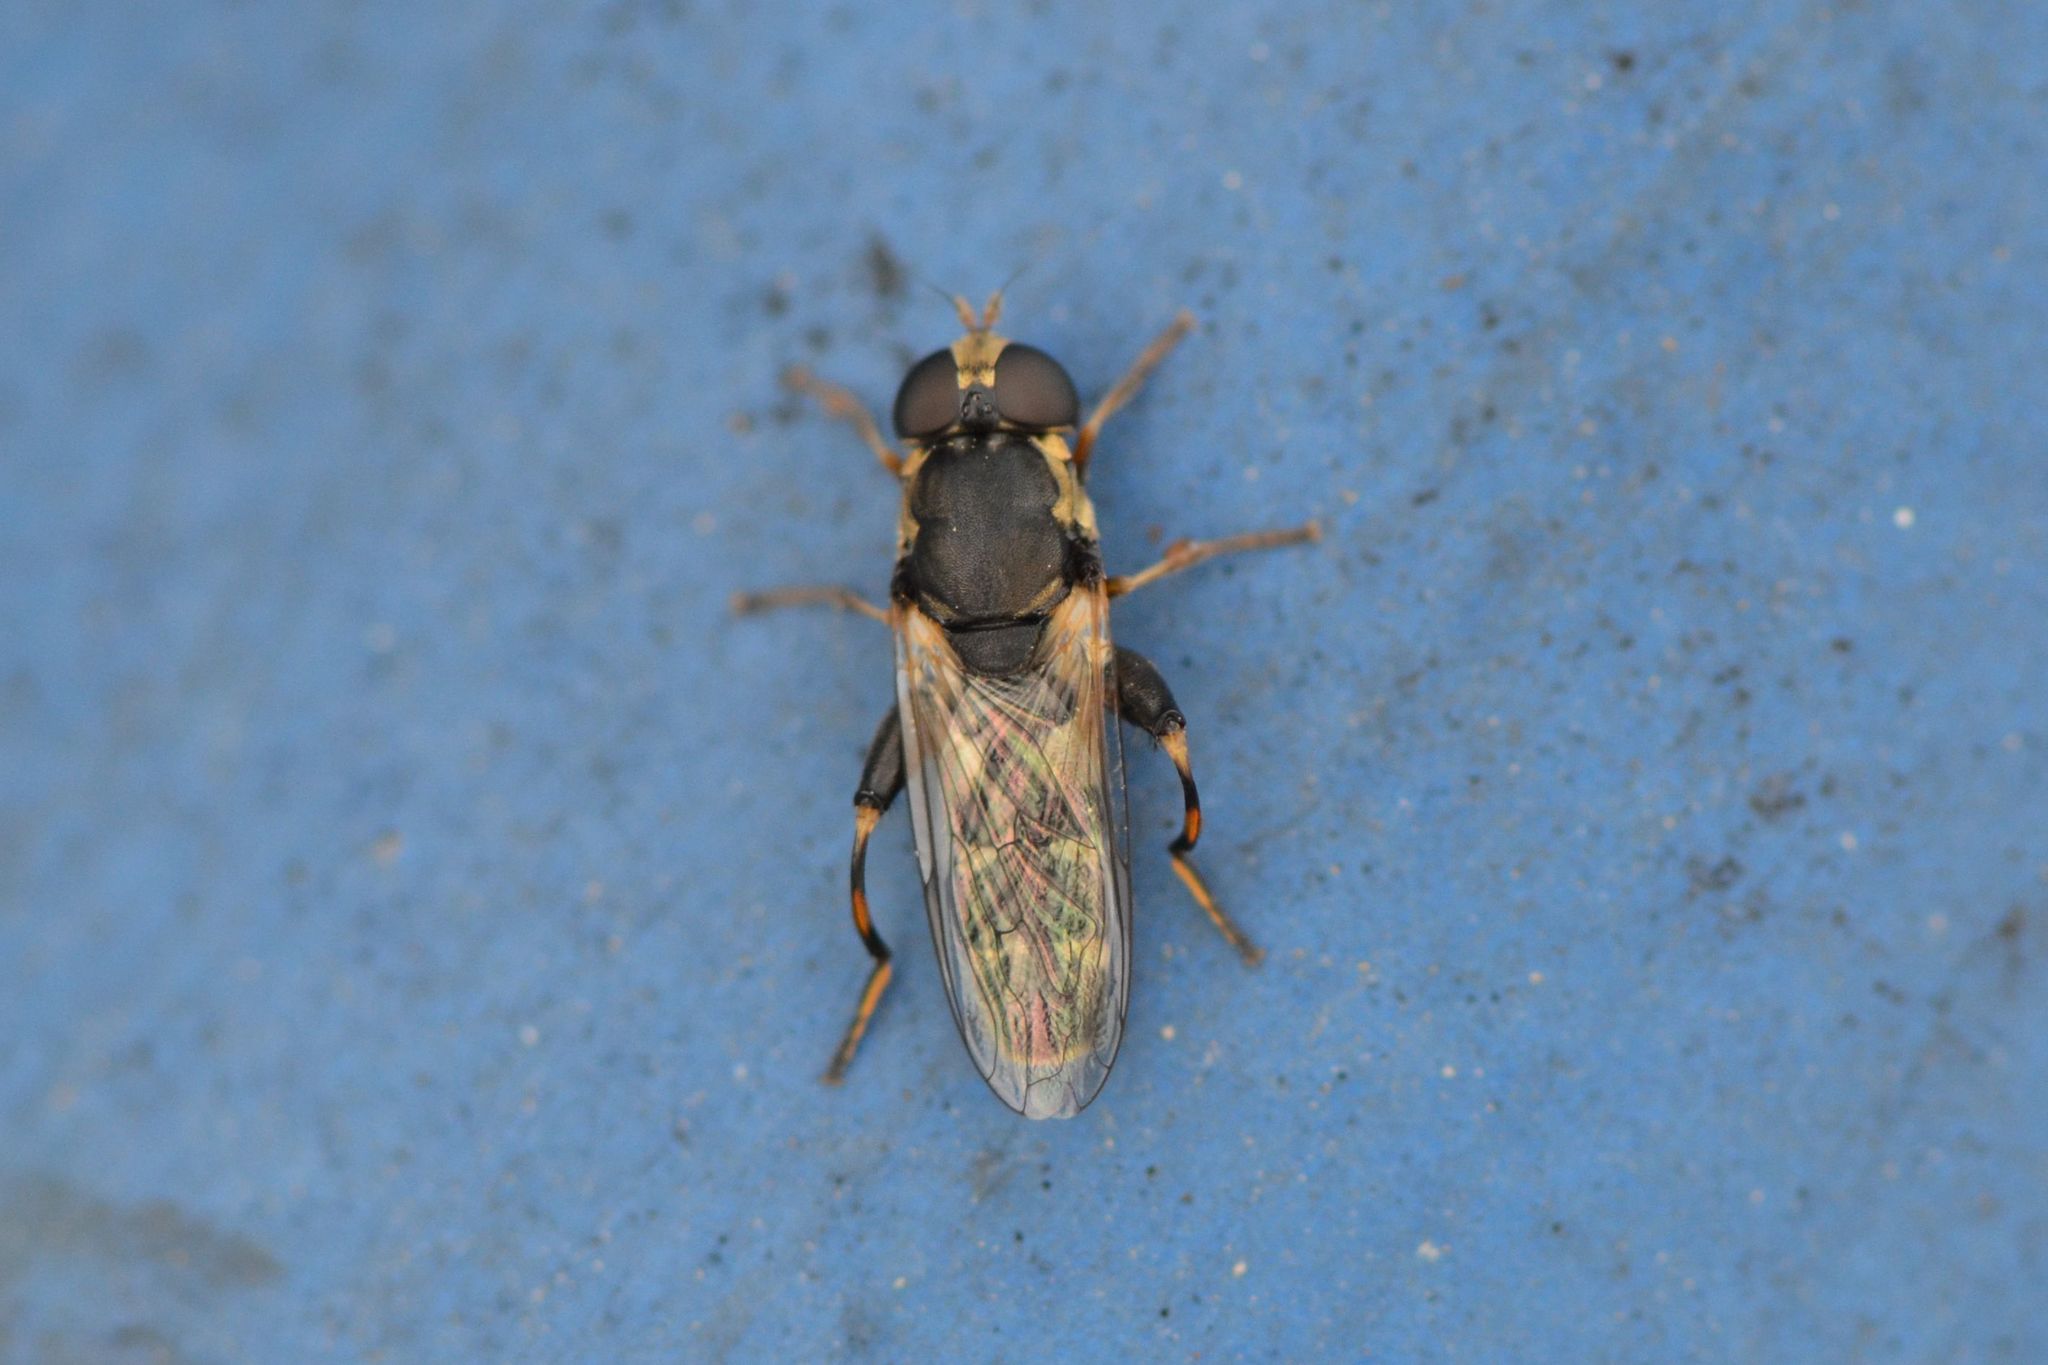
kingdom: Animalia
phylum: Arthropoda
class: Insecta
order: Diptera
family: Syrphidae
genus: Syritta
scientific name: Syritta pipiens
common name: Hover fly
